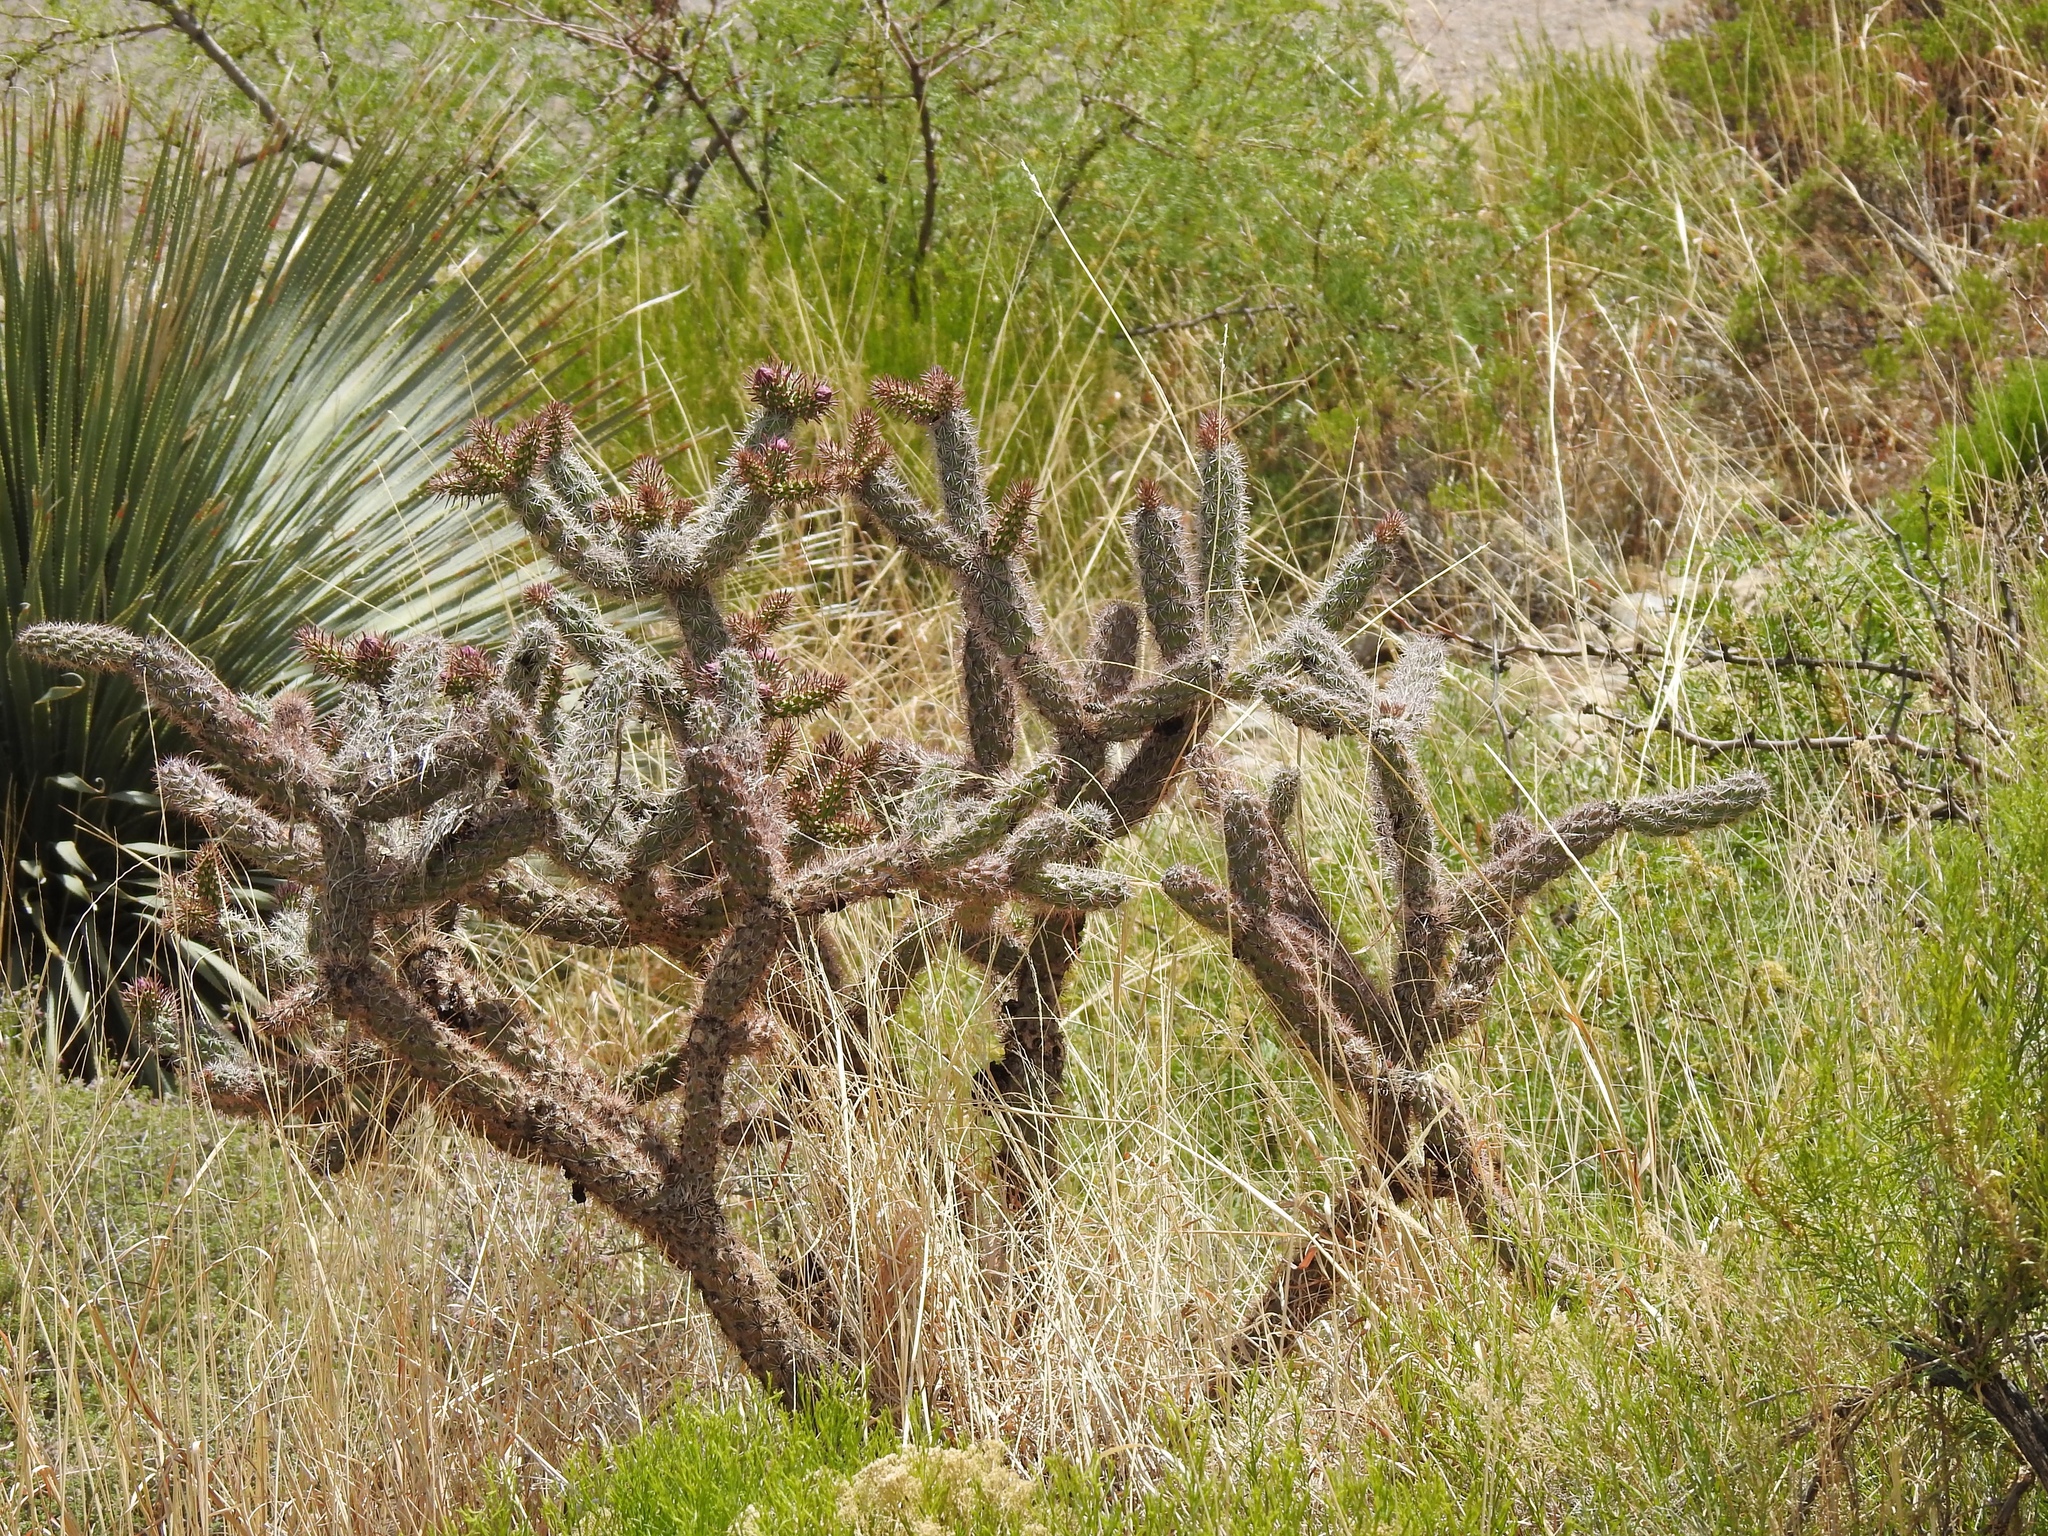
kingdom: Plantae
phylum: Tracheophyta
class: Magnoliopsida
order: Caryophyllales
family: Cactaceae
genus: Cylindropuntia
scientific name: Cylindropuntia imbricata
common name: Candelabrum cactus
